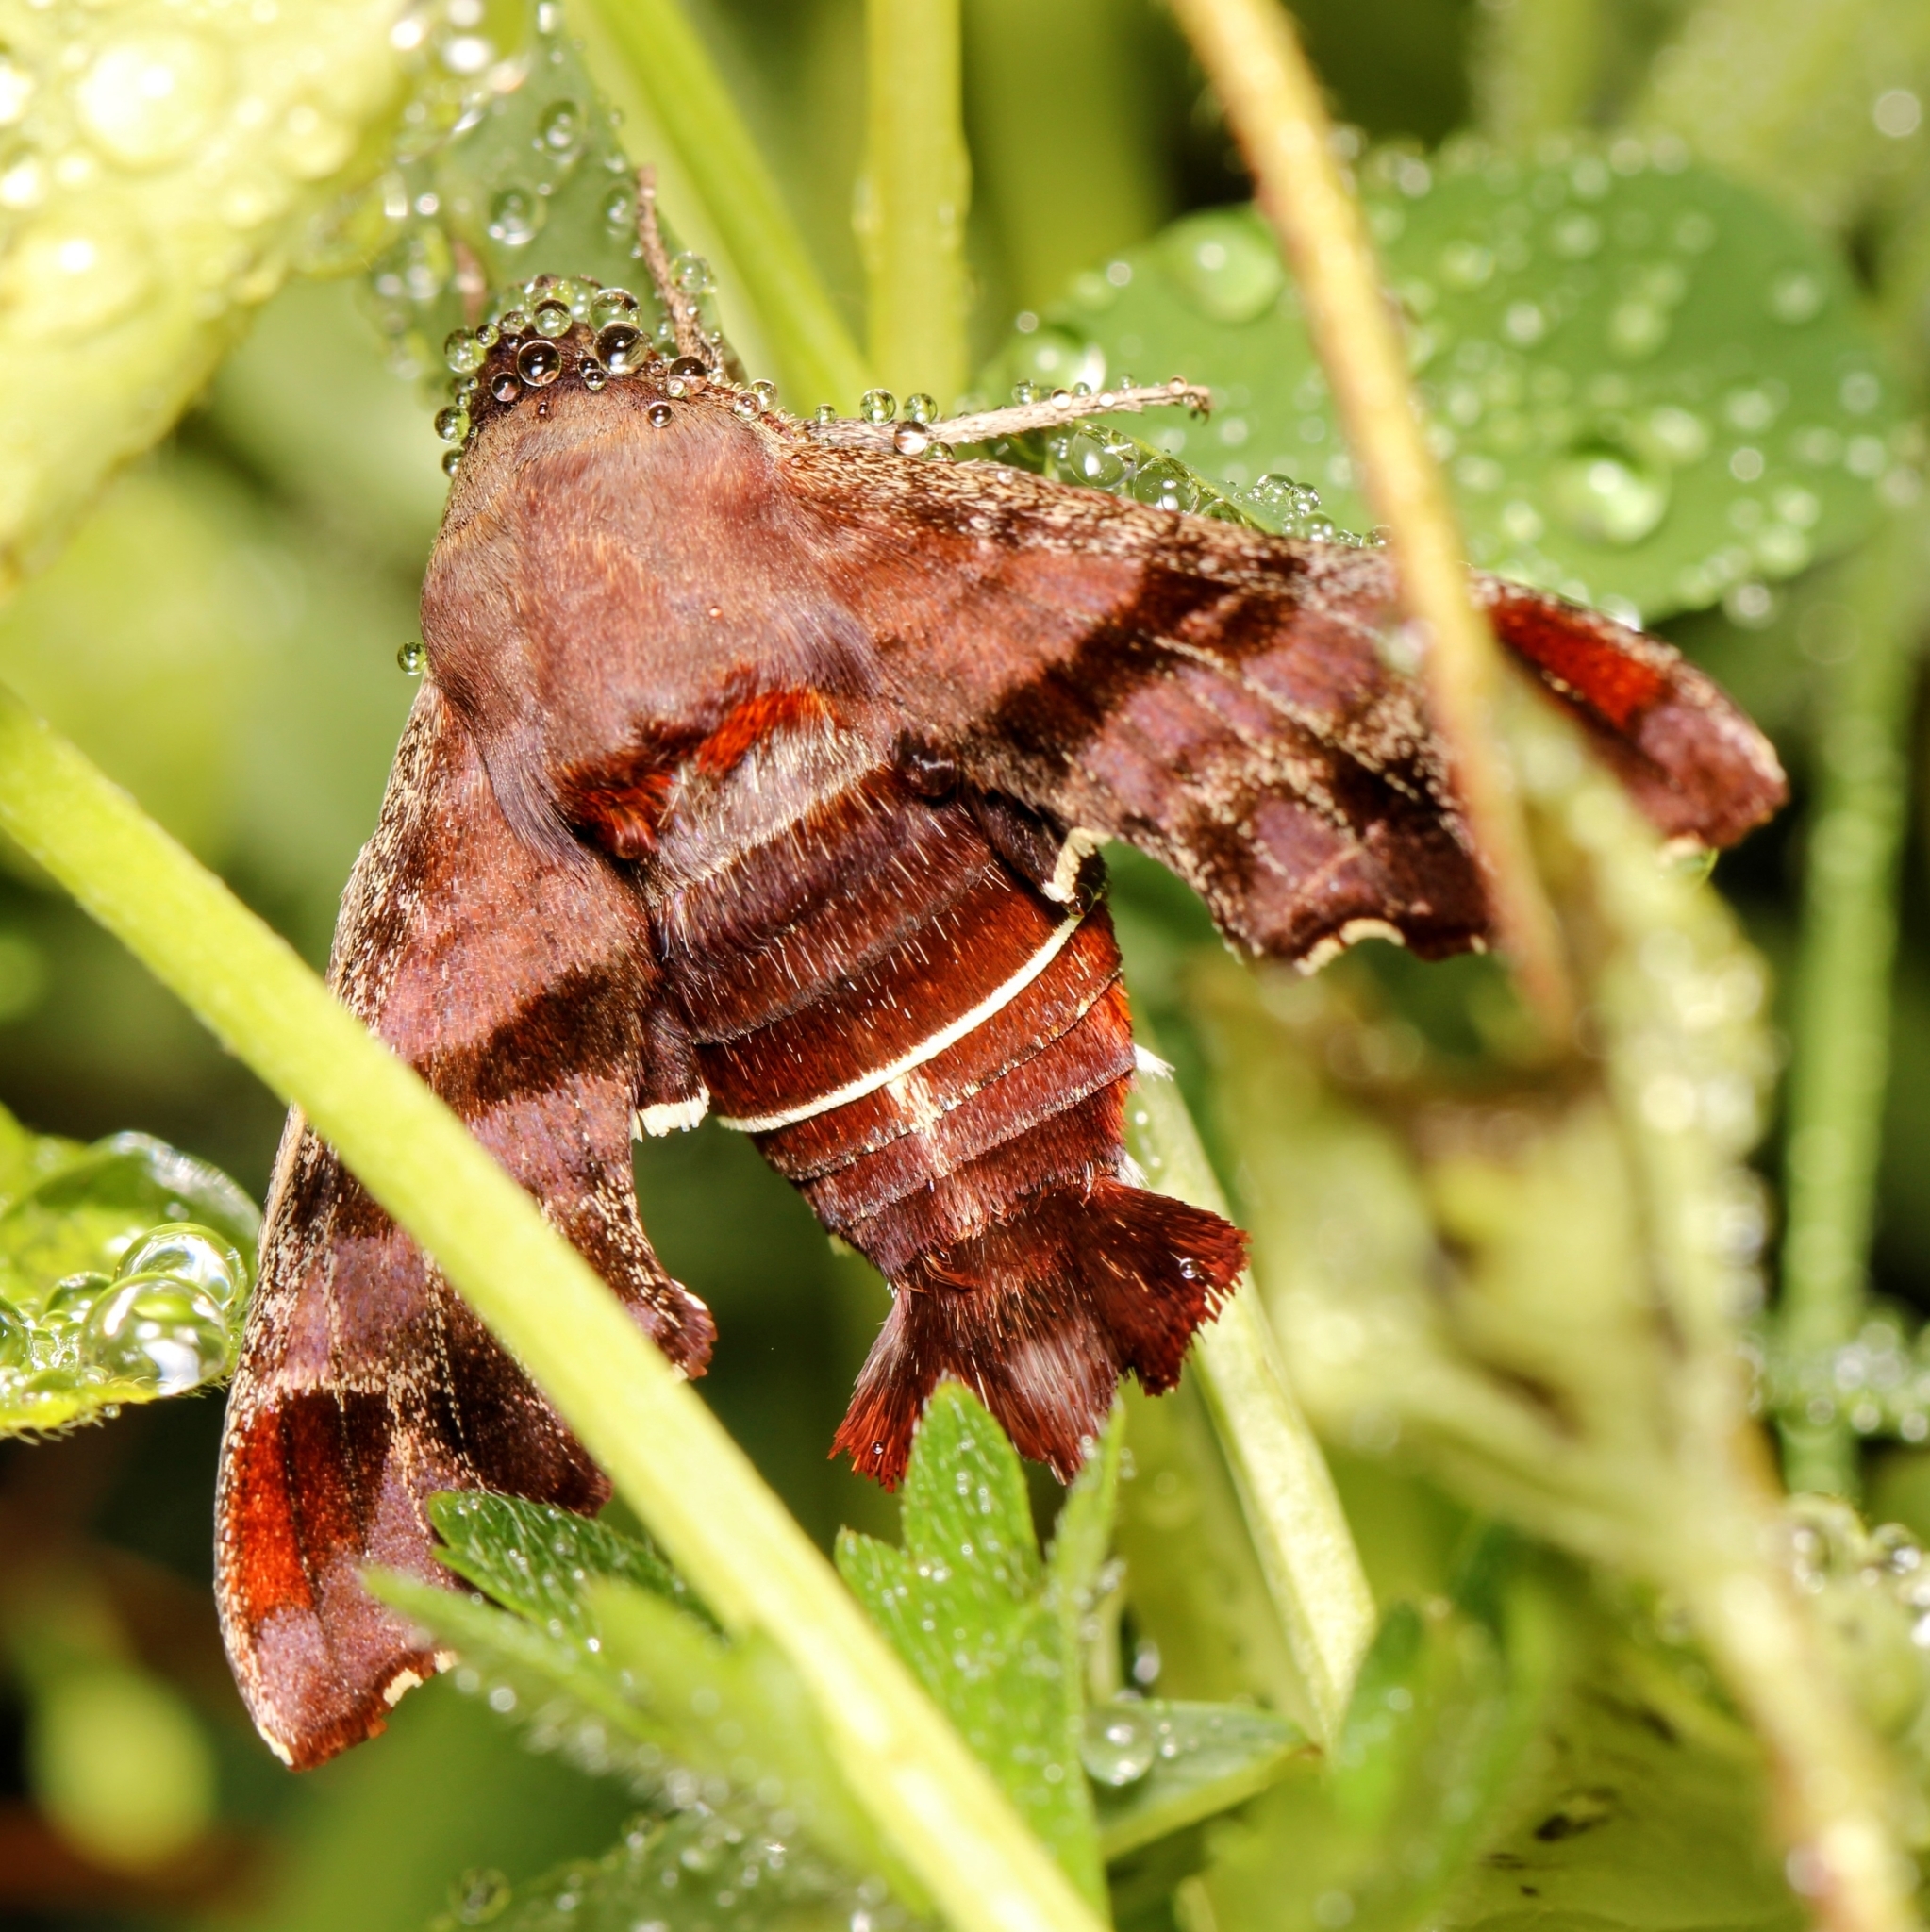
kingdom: Animalia
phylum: Arthropoda
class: Insecta
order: Lepidoptera
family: Sphingidae
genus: Amphion
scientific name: Amphion floridensis
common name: Nessus sphinx
